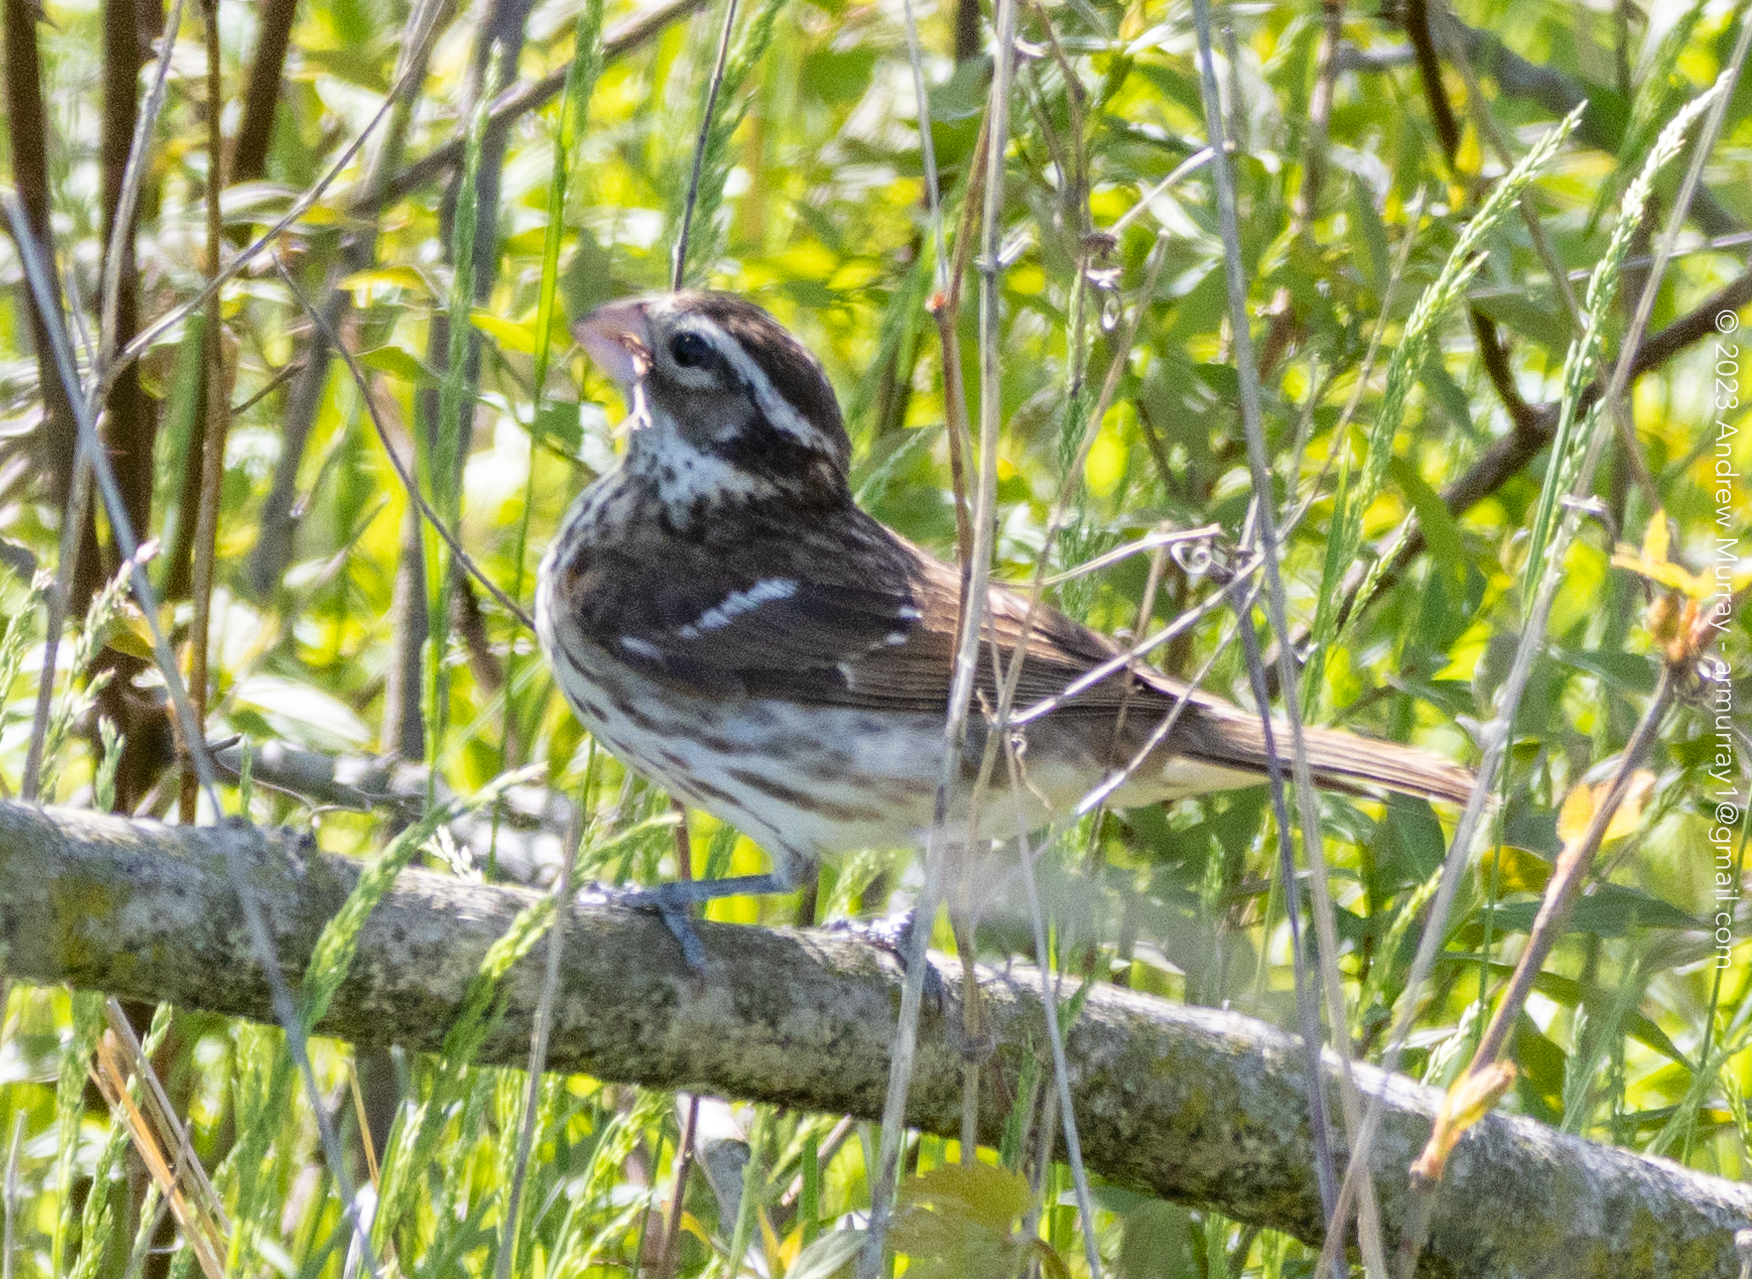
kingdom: Animalia
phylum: Chordata
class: Aves
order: Passeriformes
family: Cardinalidae
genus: Pheucticus
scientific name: Pheucticus ludovicianus
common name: Rose-breasted grosbeak
